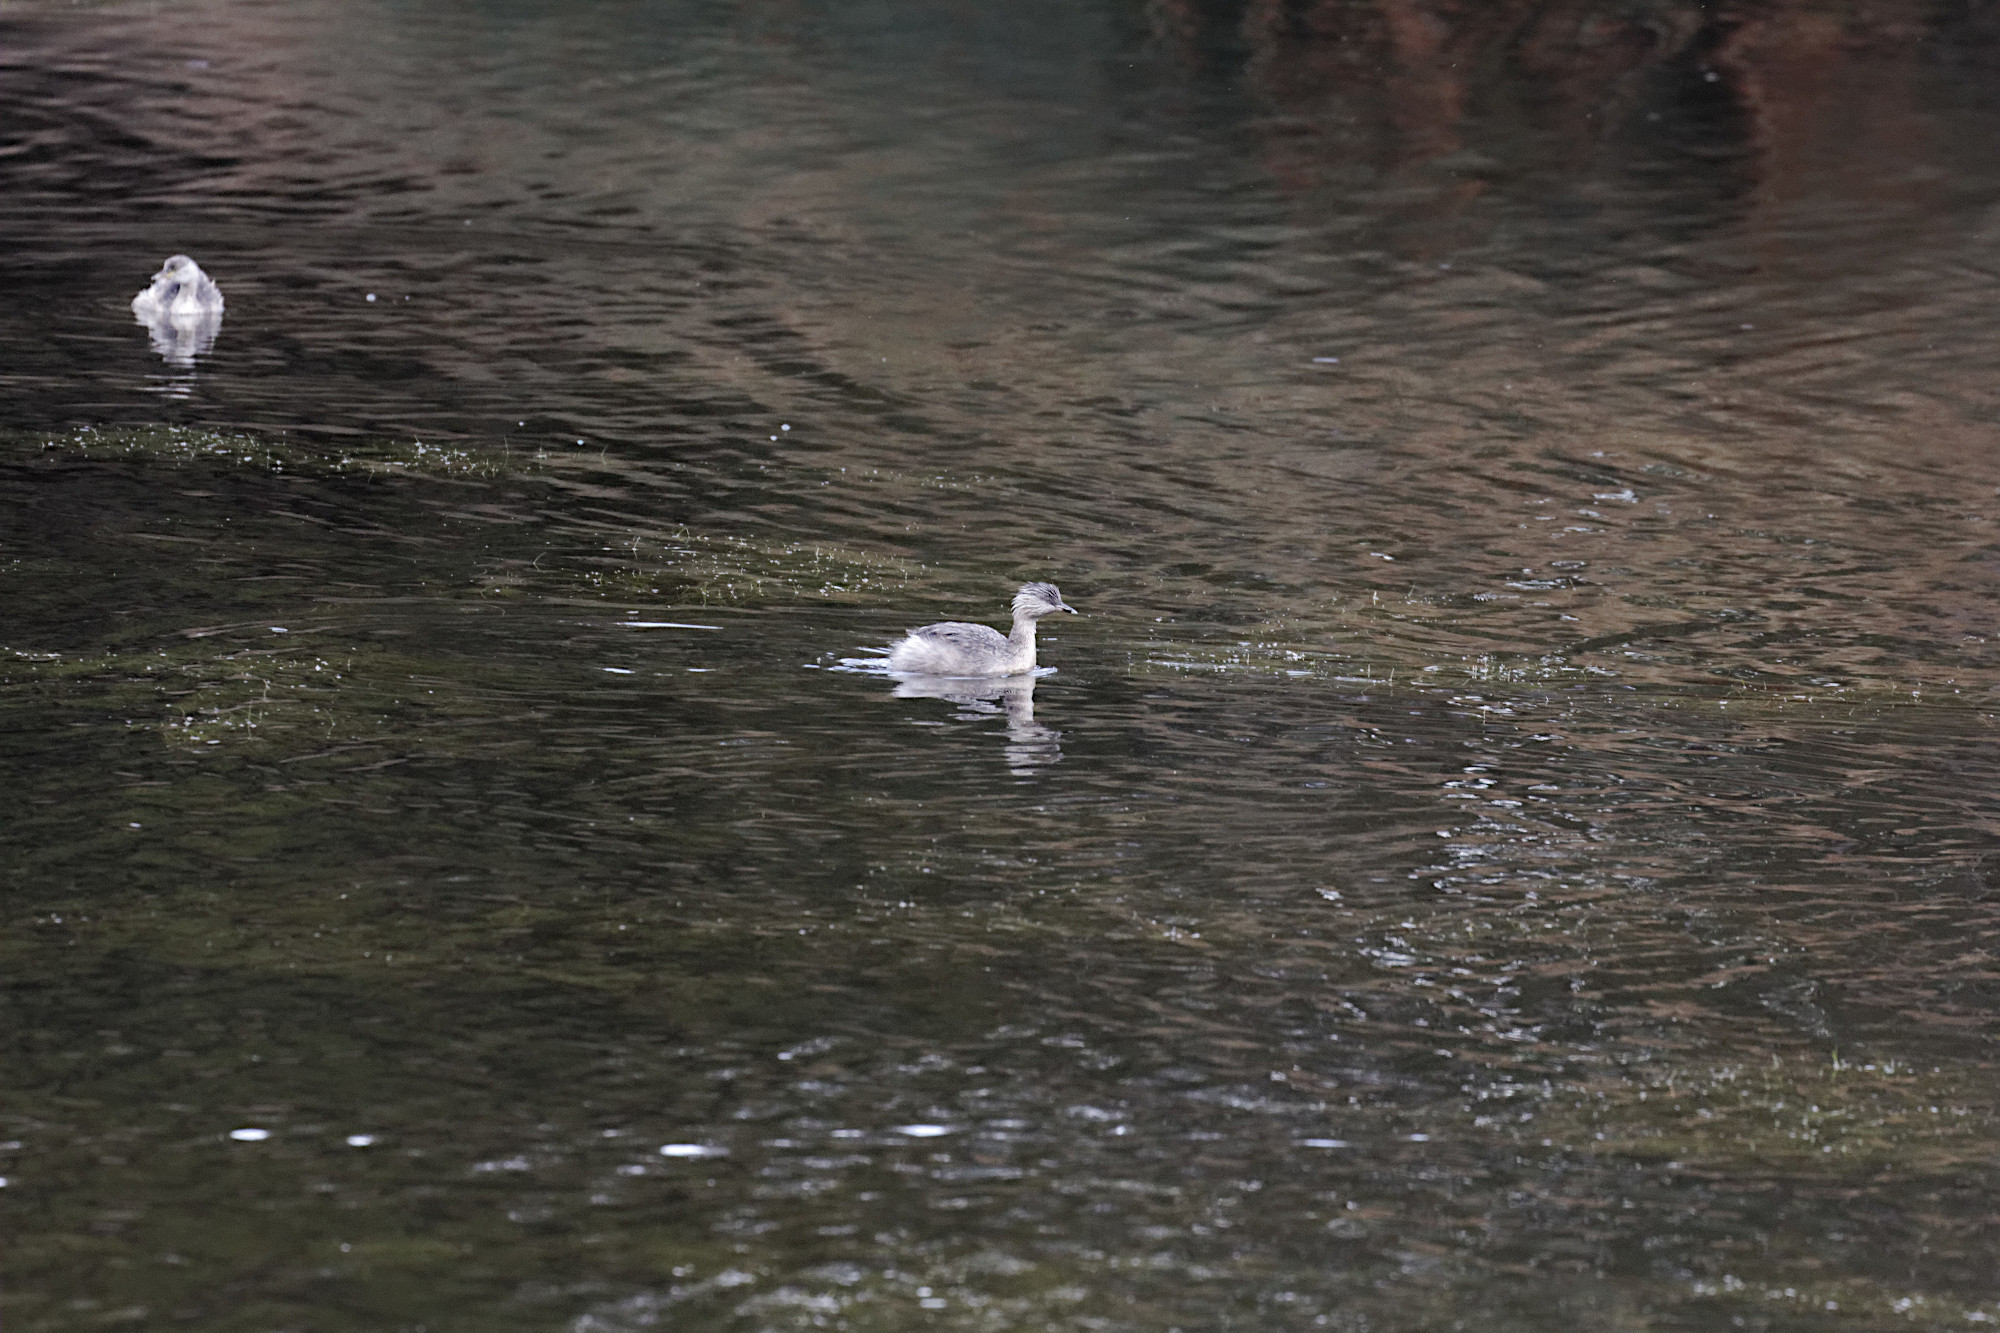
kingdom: Animalia
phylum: Chordata
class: Aves
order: Podicipediformes
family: Podicipedidae
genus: Poliocephalus
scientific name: Poliocephalus poliocephalus
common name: Hoary-headed grebe
